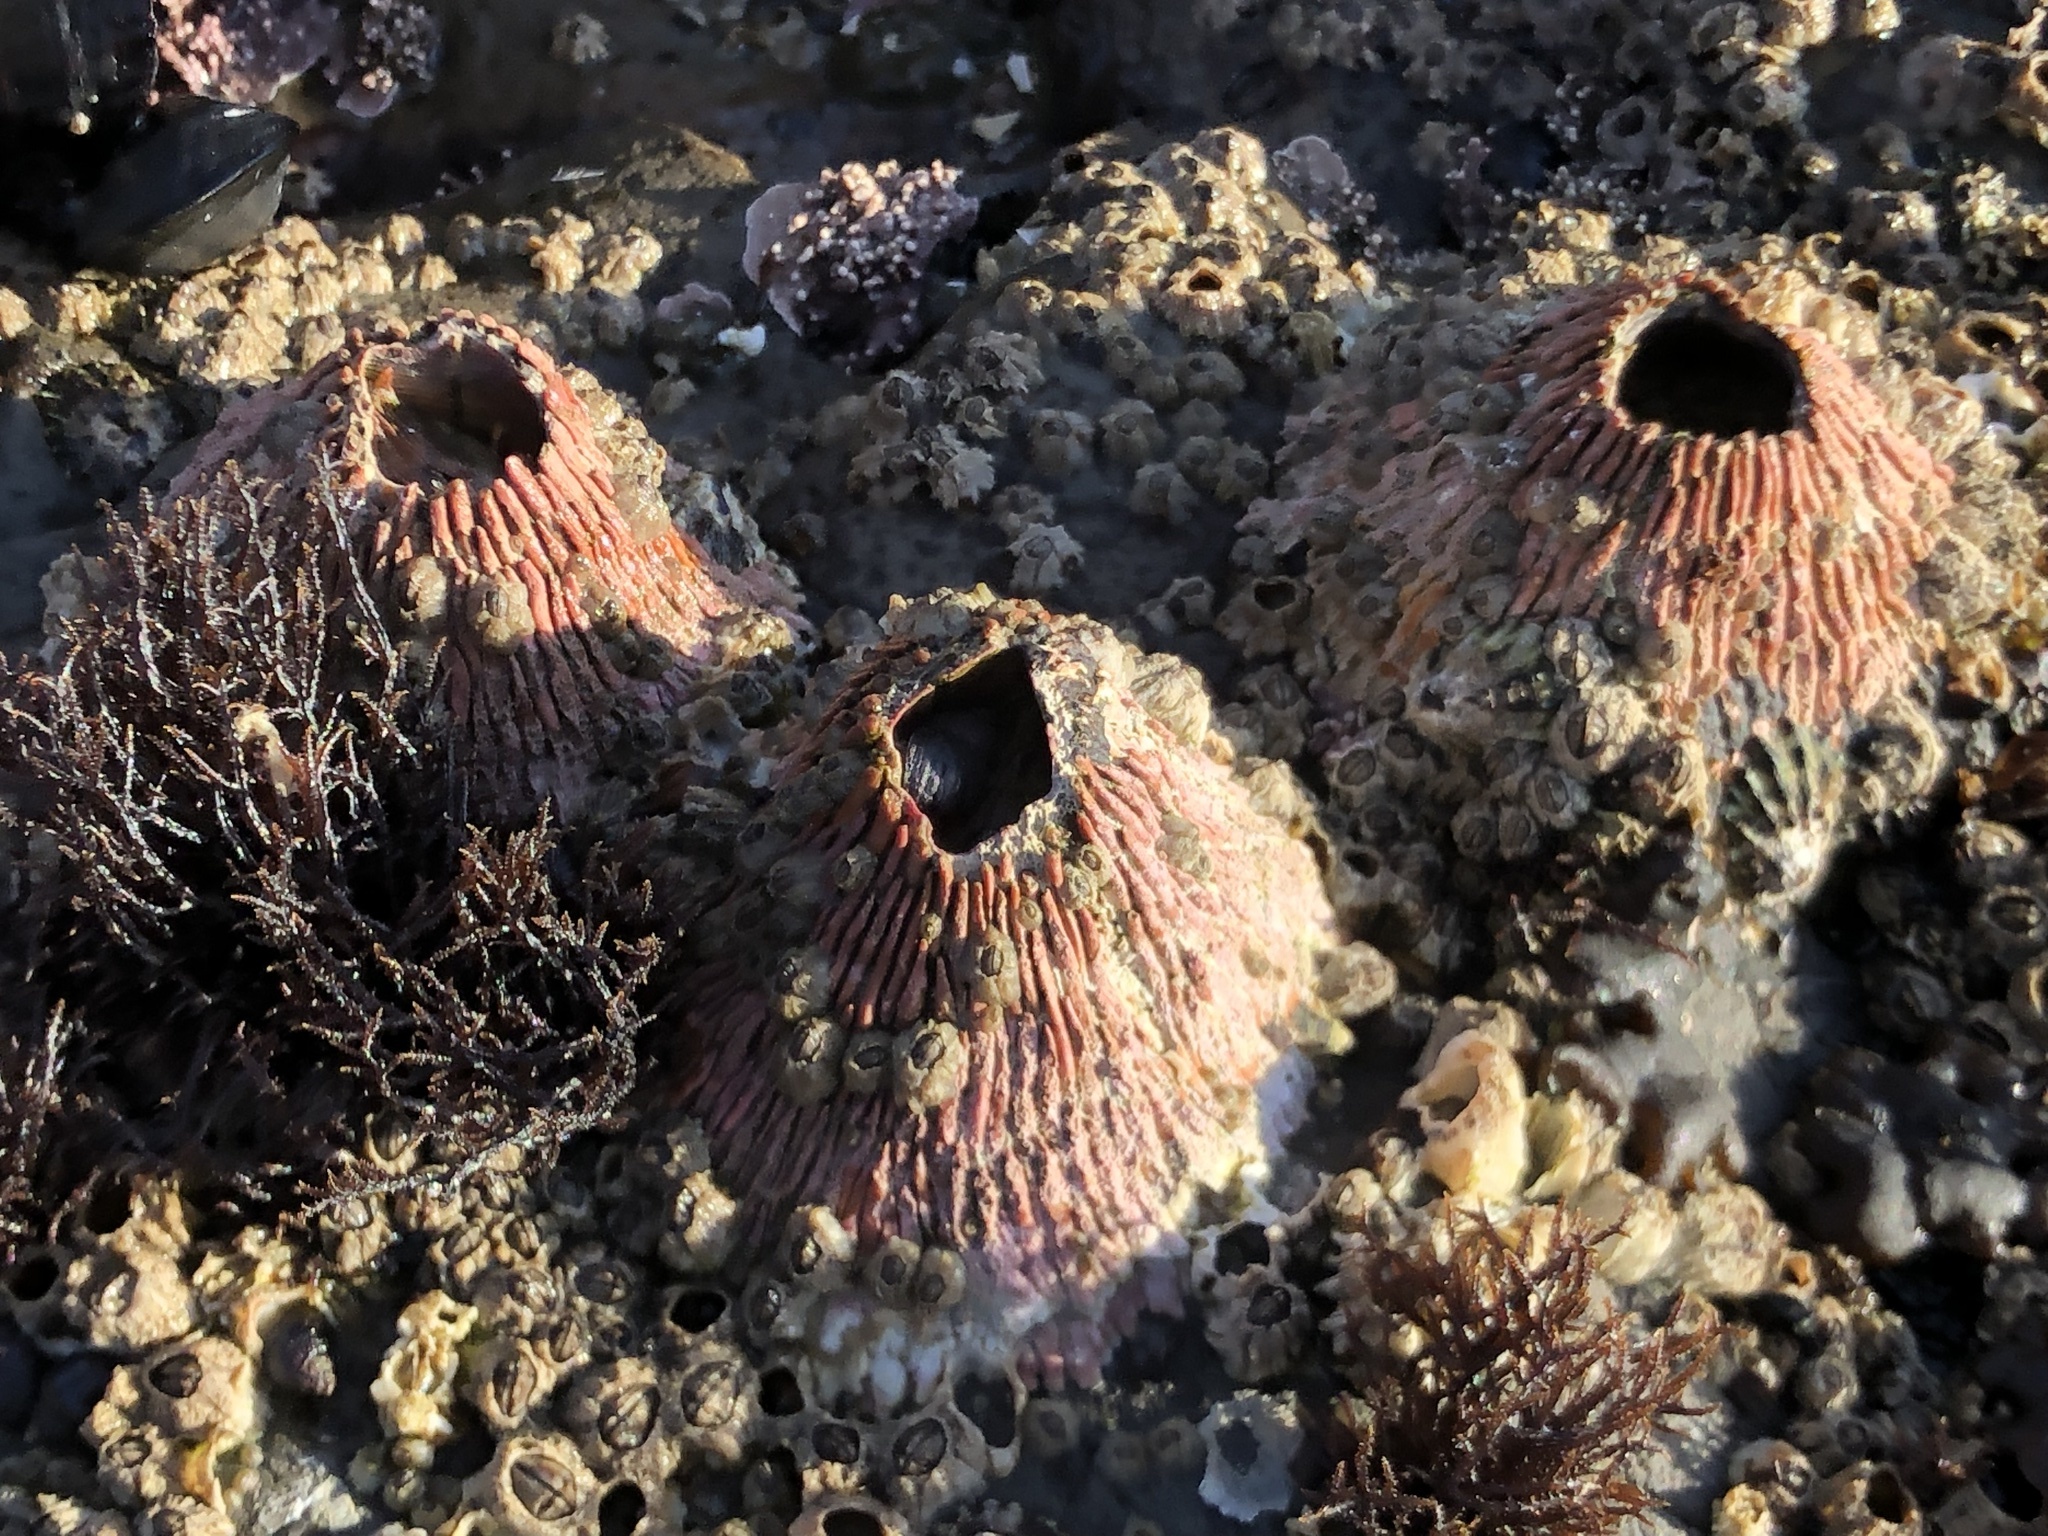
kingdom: Animalia
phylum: Arthropoda
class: Maxillopoda
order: Sessilia
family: Tetraclitidae
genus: Tetraclita
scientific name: Tetraclita rubescens
